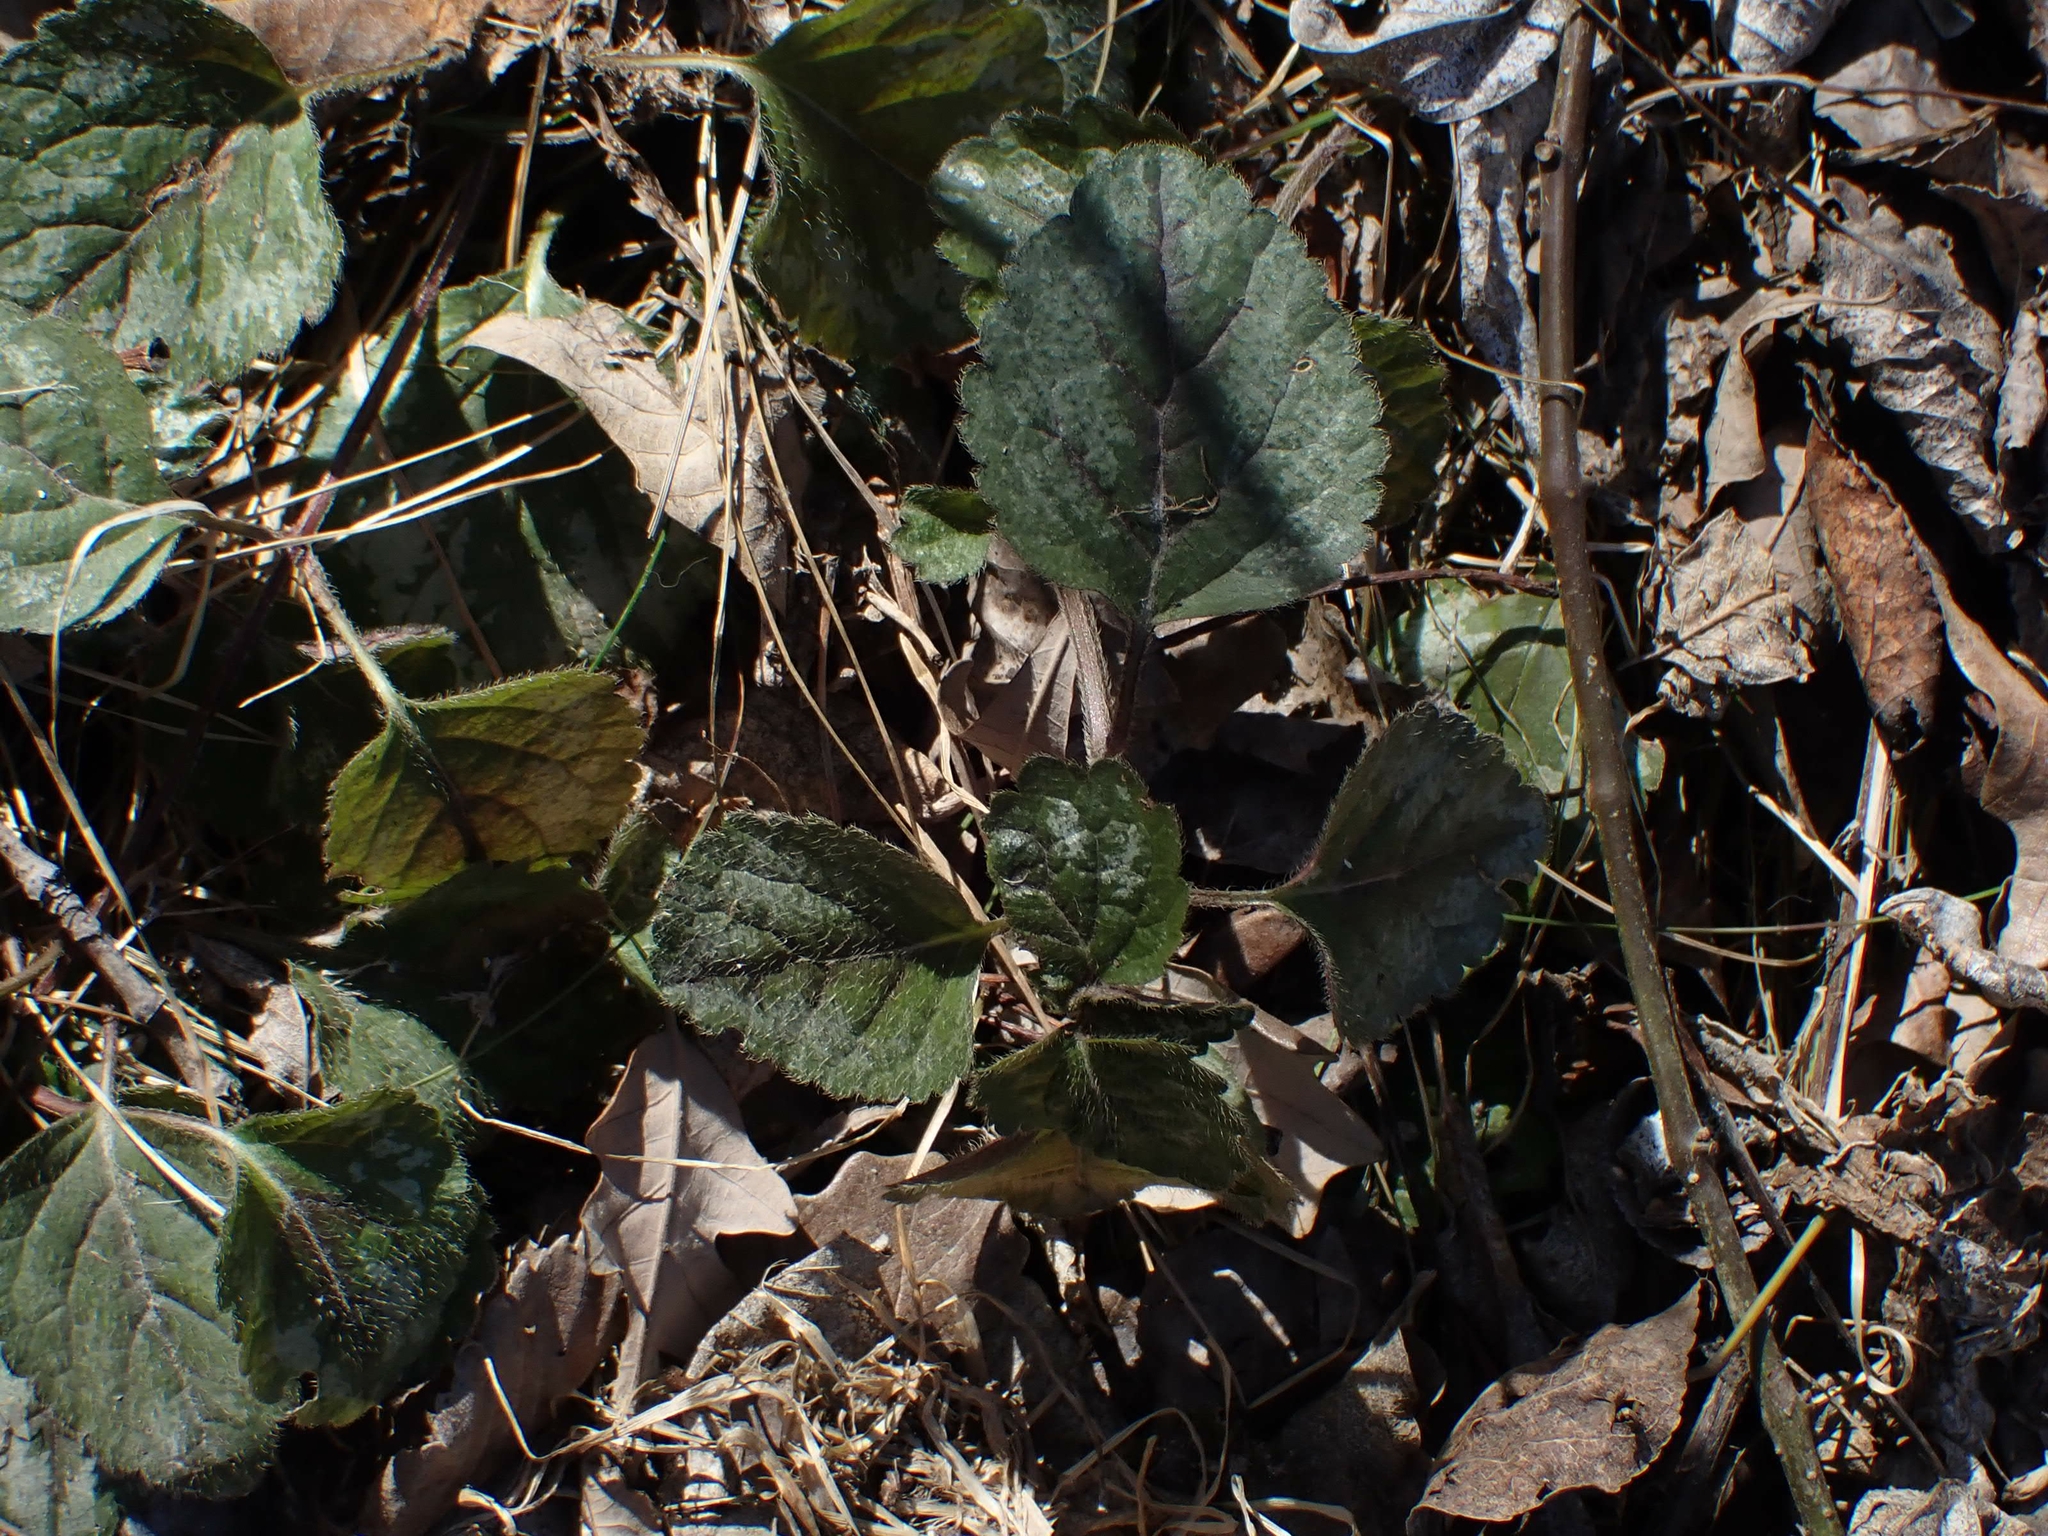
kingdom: Plantae
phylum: Tracheophyta
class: Magnoliopsida
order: Lamiales
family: Lamiaceae
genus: Lamium
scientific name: Lamium galeobdolon
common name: Yellow archangel
